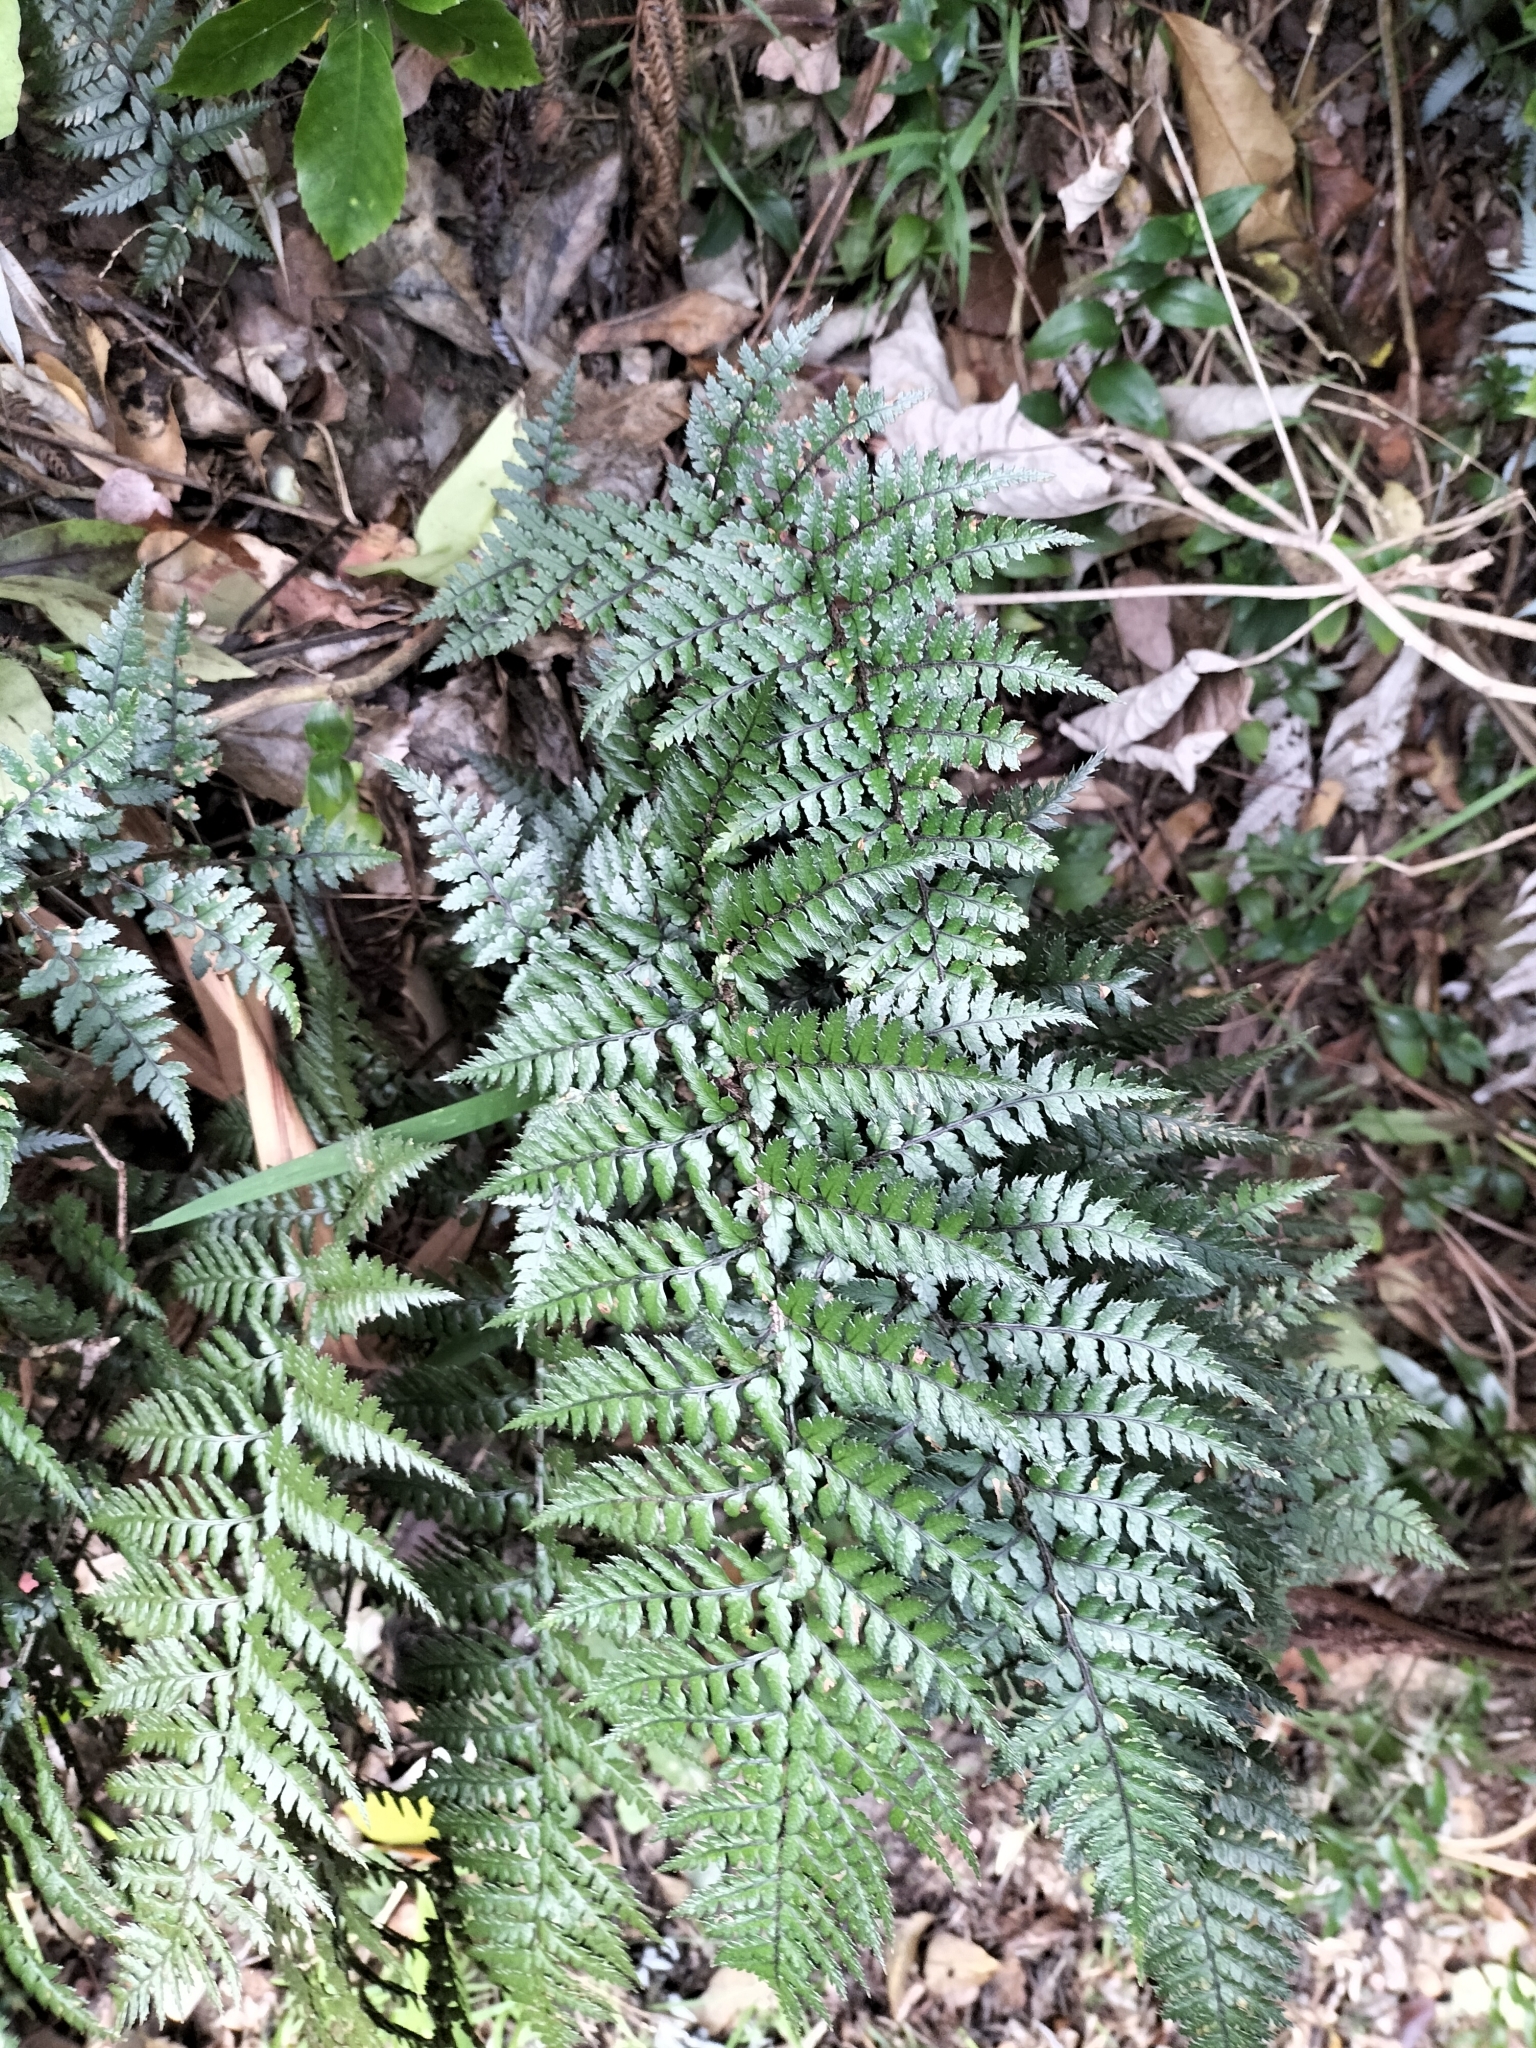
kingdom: Plantae
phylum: Tracheophyta
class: Polypodiopsida
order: Polypodiales
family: Dryopteridaceae
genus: Polystichum
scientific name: Polystichum neozelandicum
